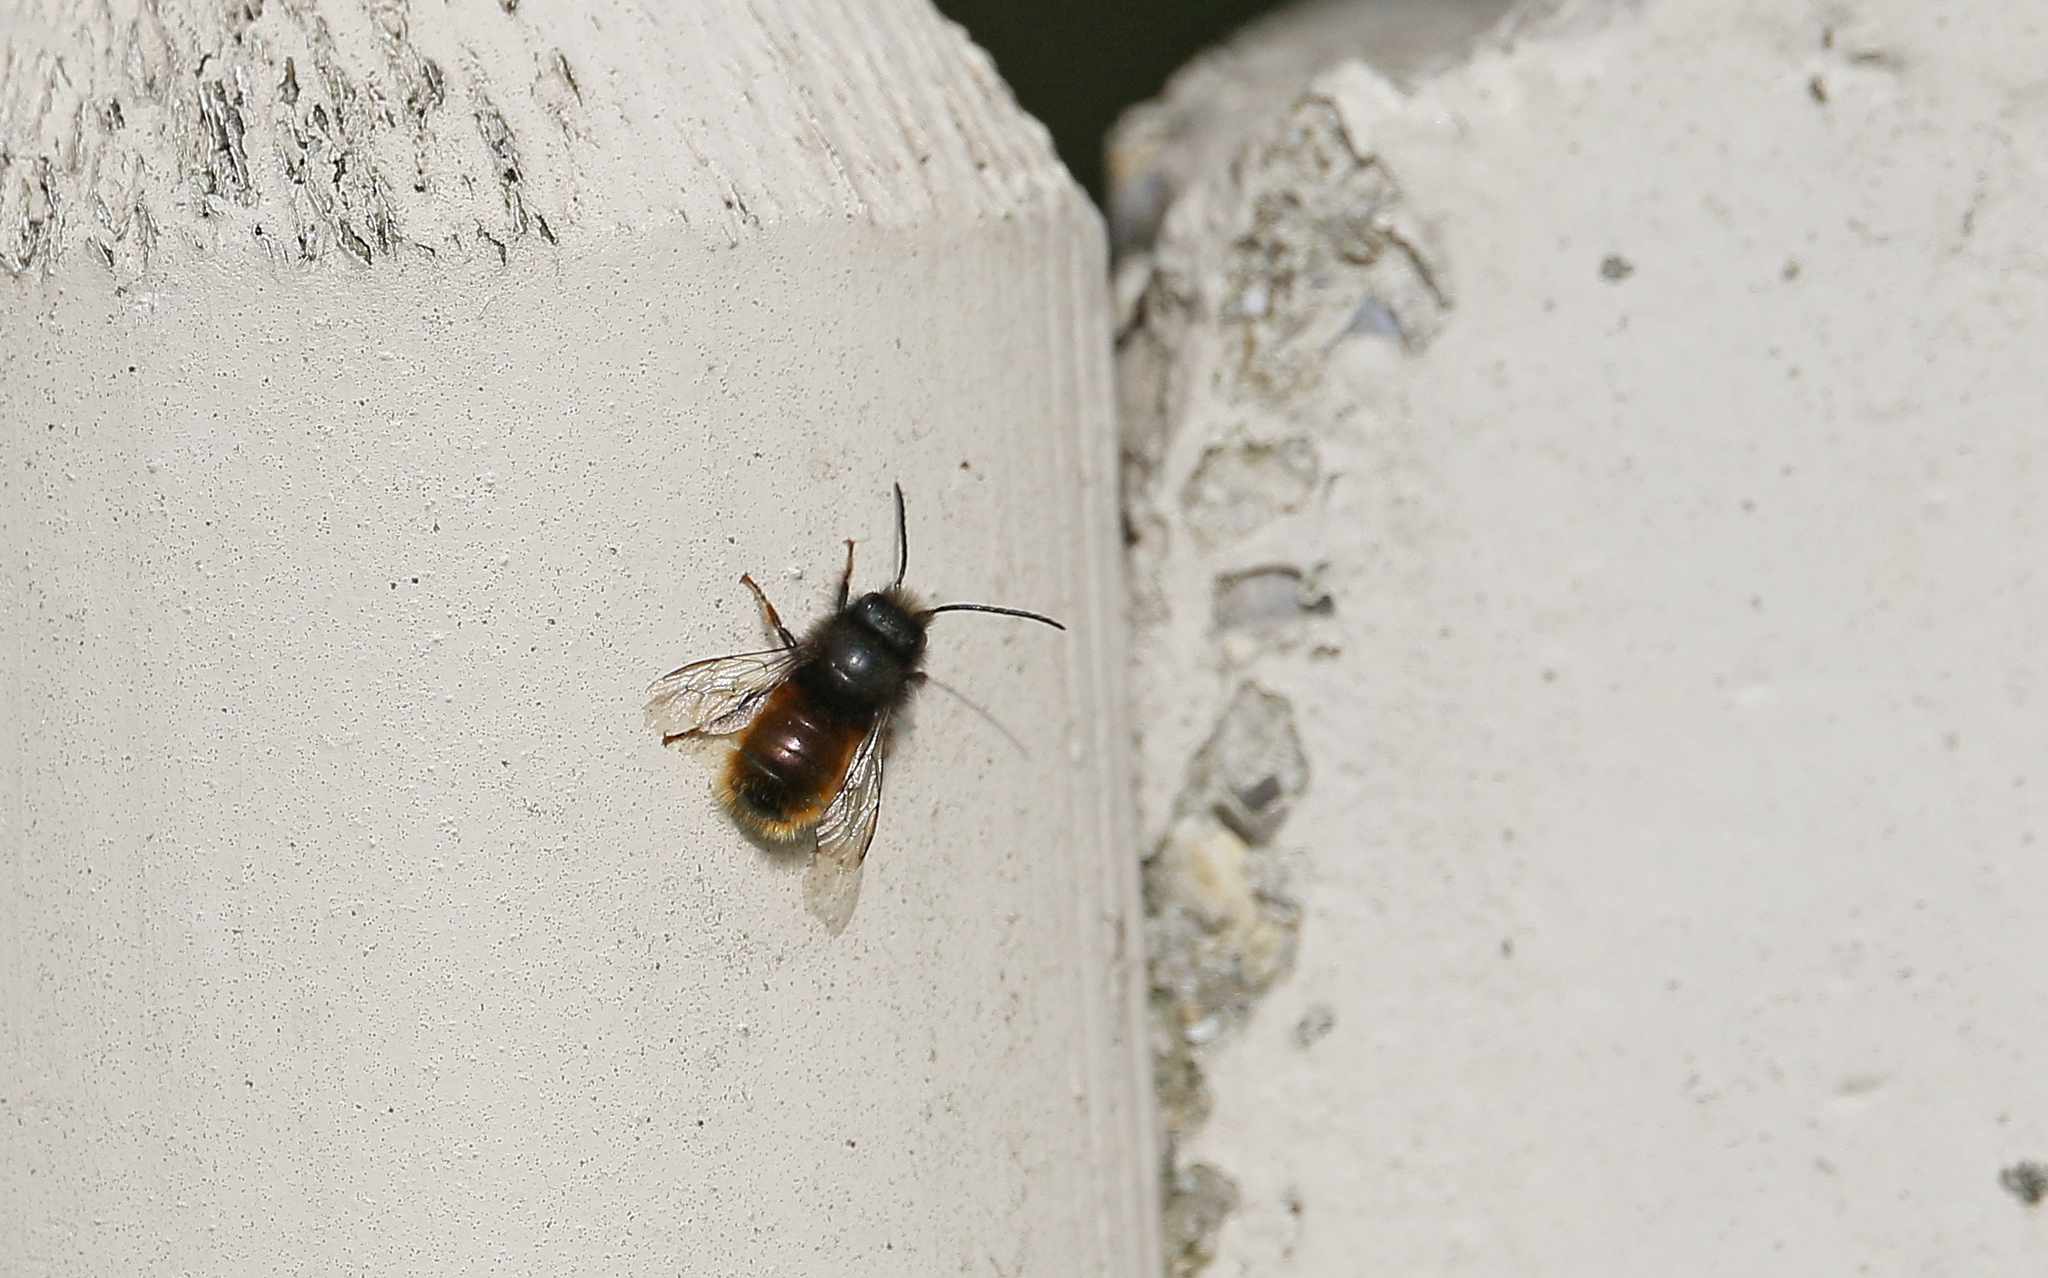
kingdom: Animalia
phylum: Arthropoda
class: Insecta
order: Hymenoptera
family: Megachilidae
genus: Osmia
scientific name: Osmia cornuta
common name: Mason bee
